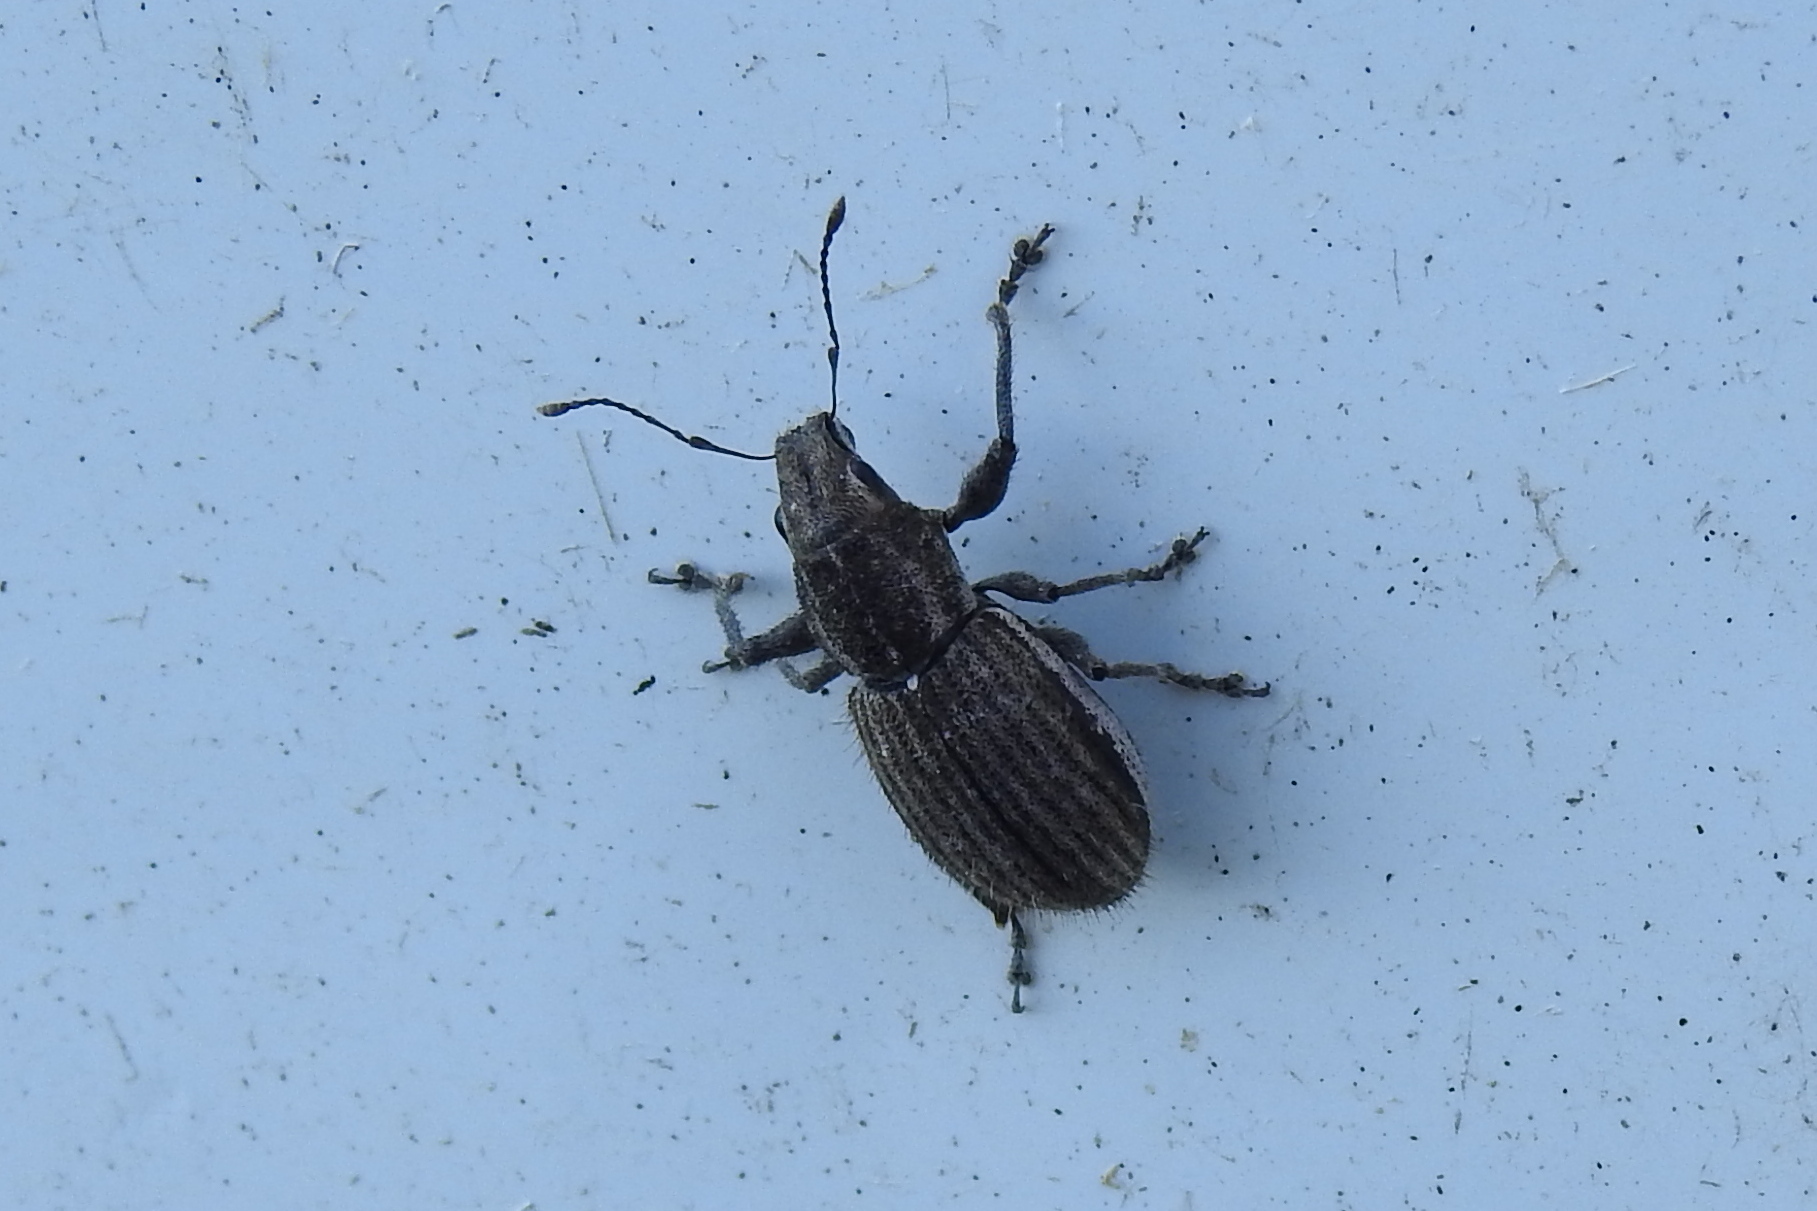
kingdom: Animalia
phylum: Arthropoda
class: Insecta
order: Coleoptera
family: Curculionidae
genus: Naupactus
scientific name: Naupactus leucoloma
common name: Whitefringed beetle
